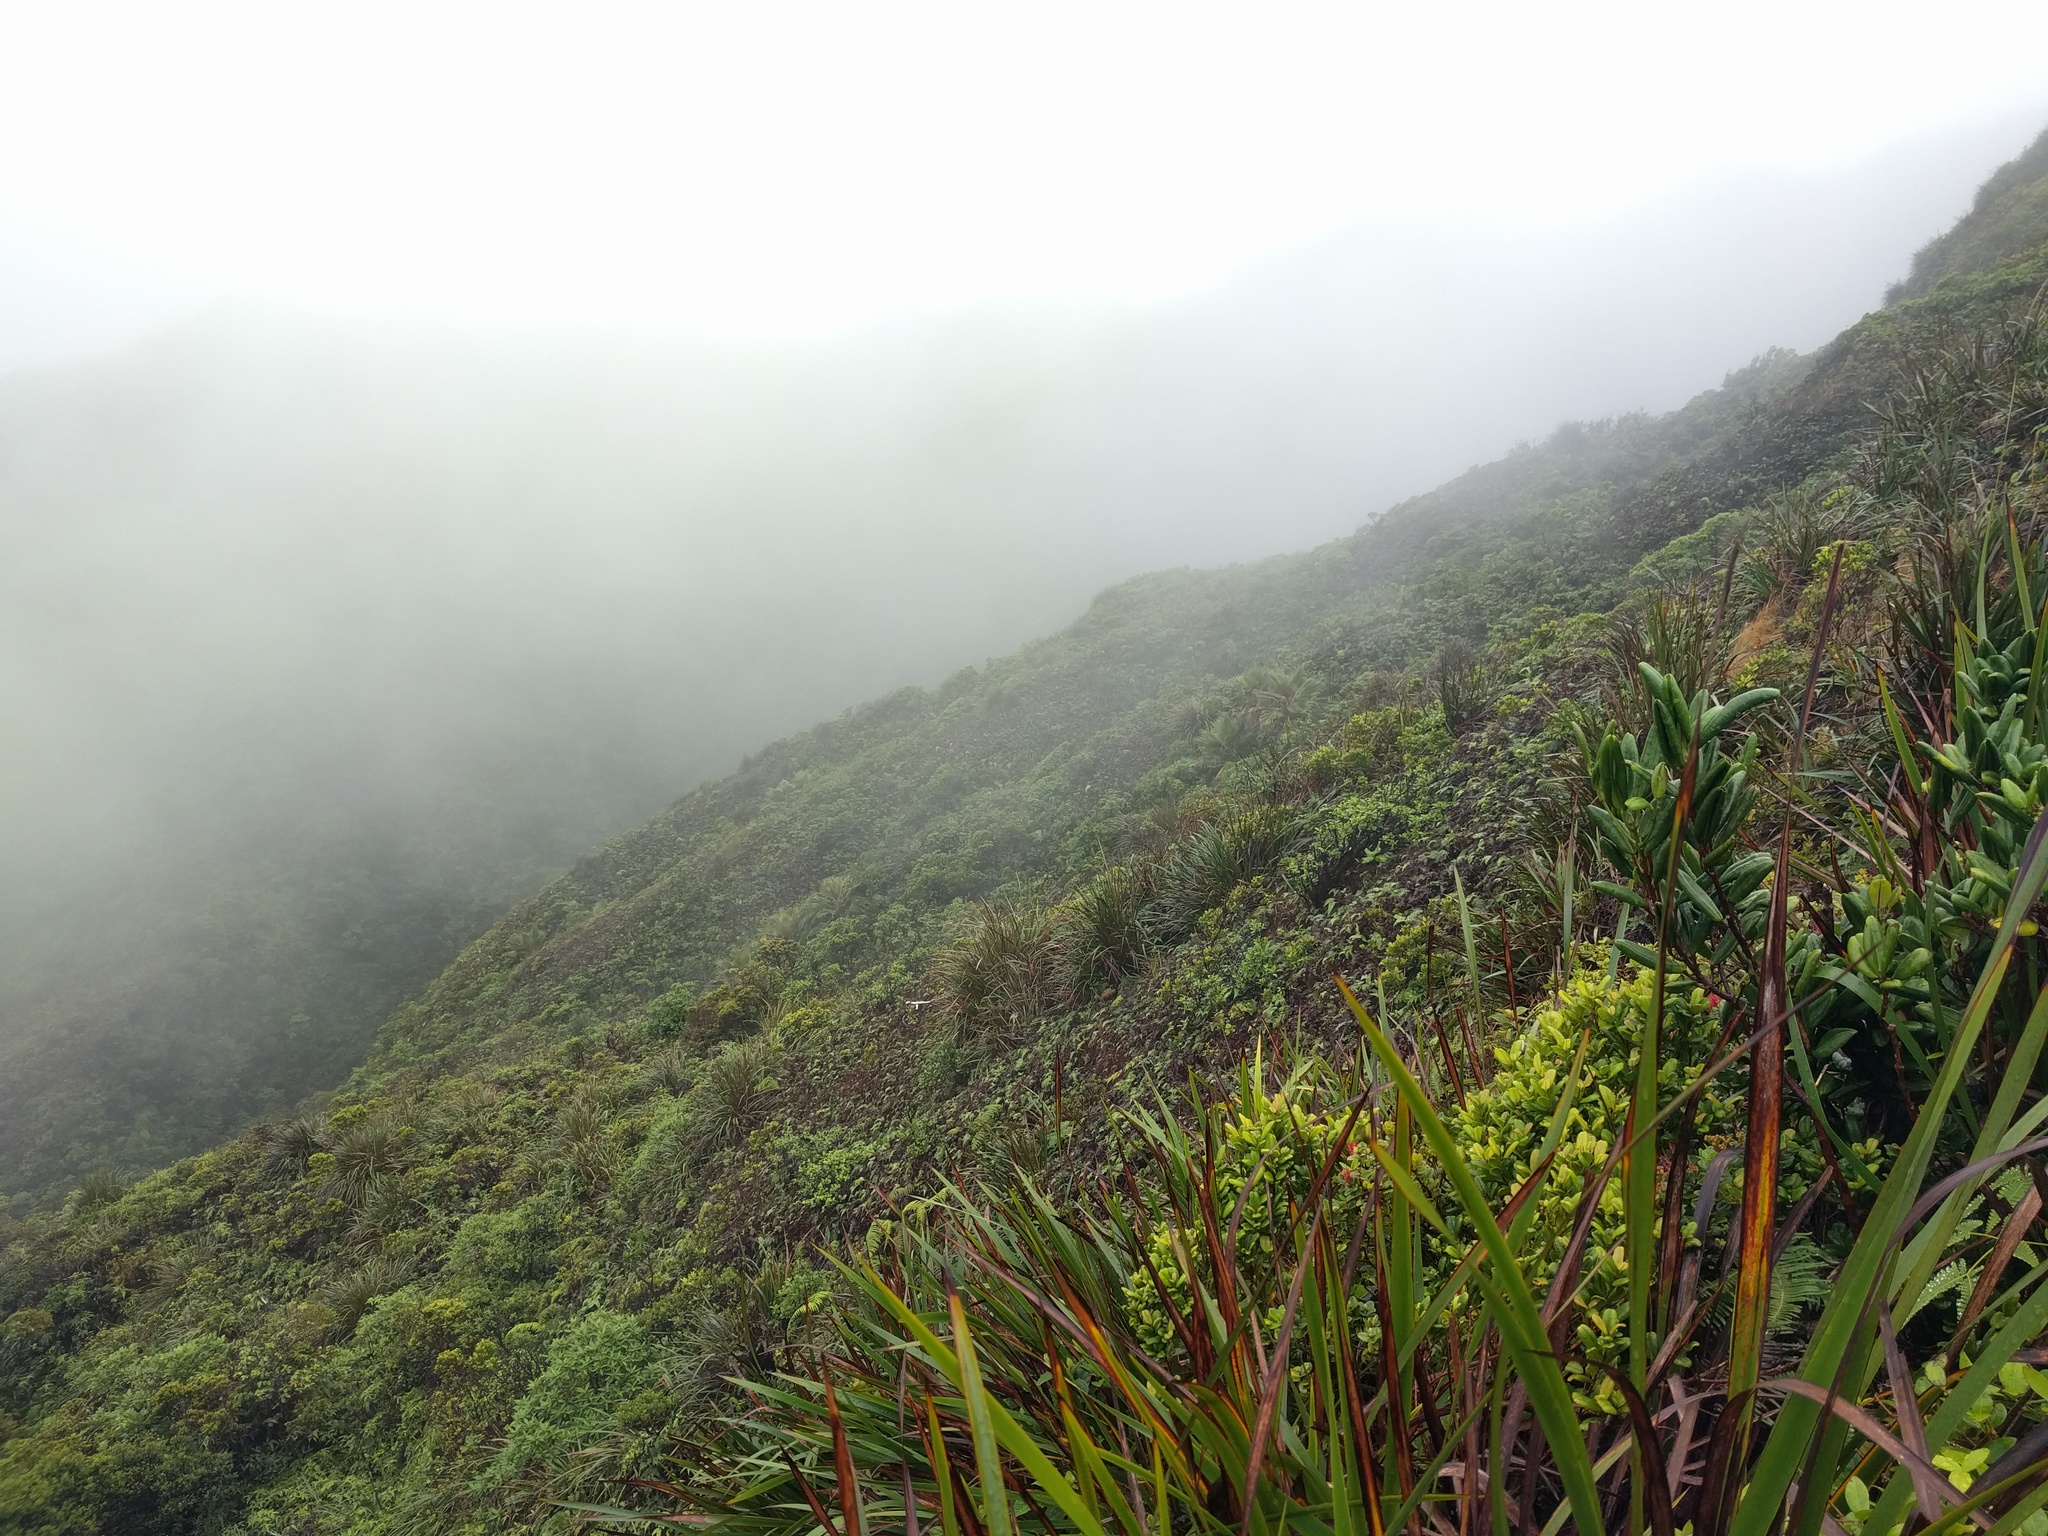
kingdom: Plantae
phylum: Tracheophyta
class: Liliopsida
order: Poales
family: Cyperaceae
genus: Machaerina
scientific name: Machaerina angustifolia
